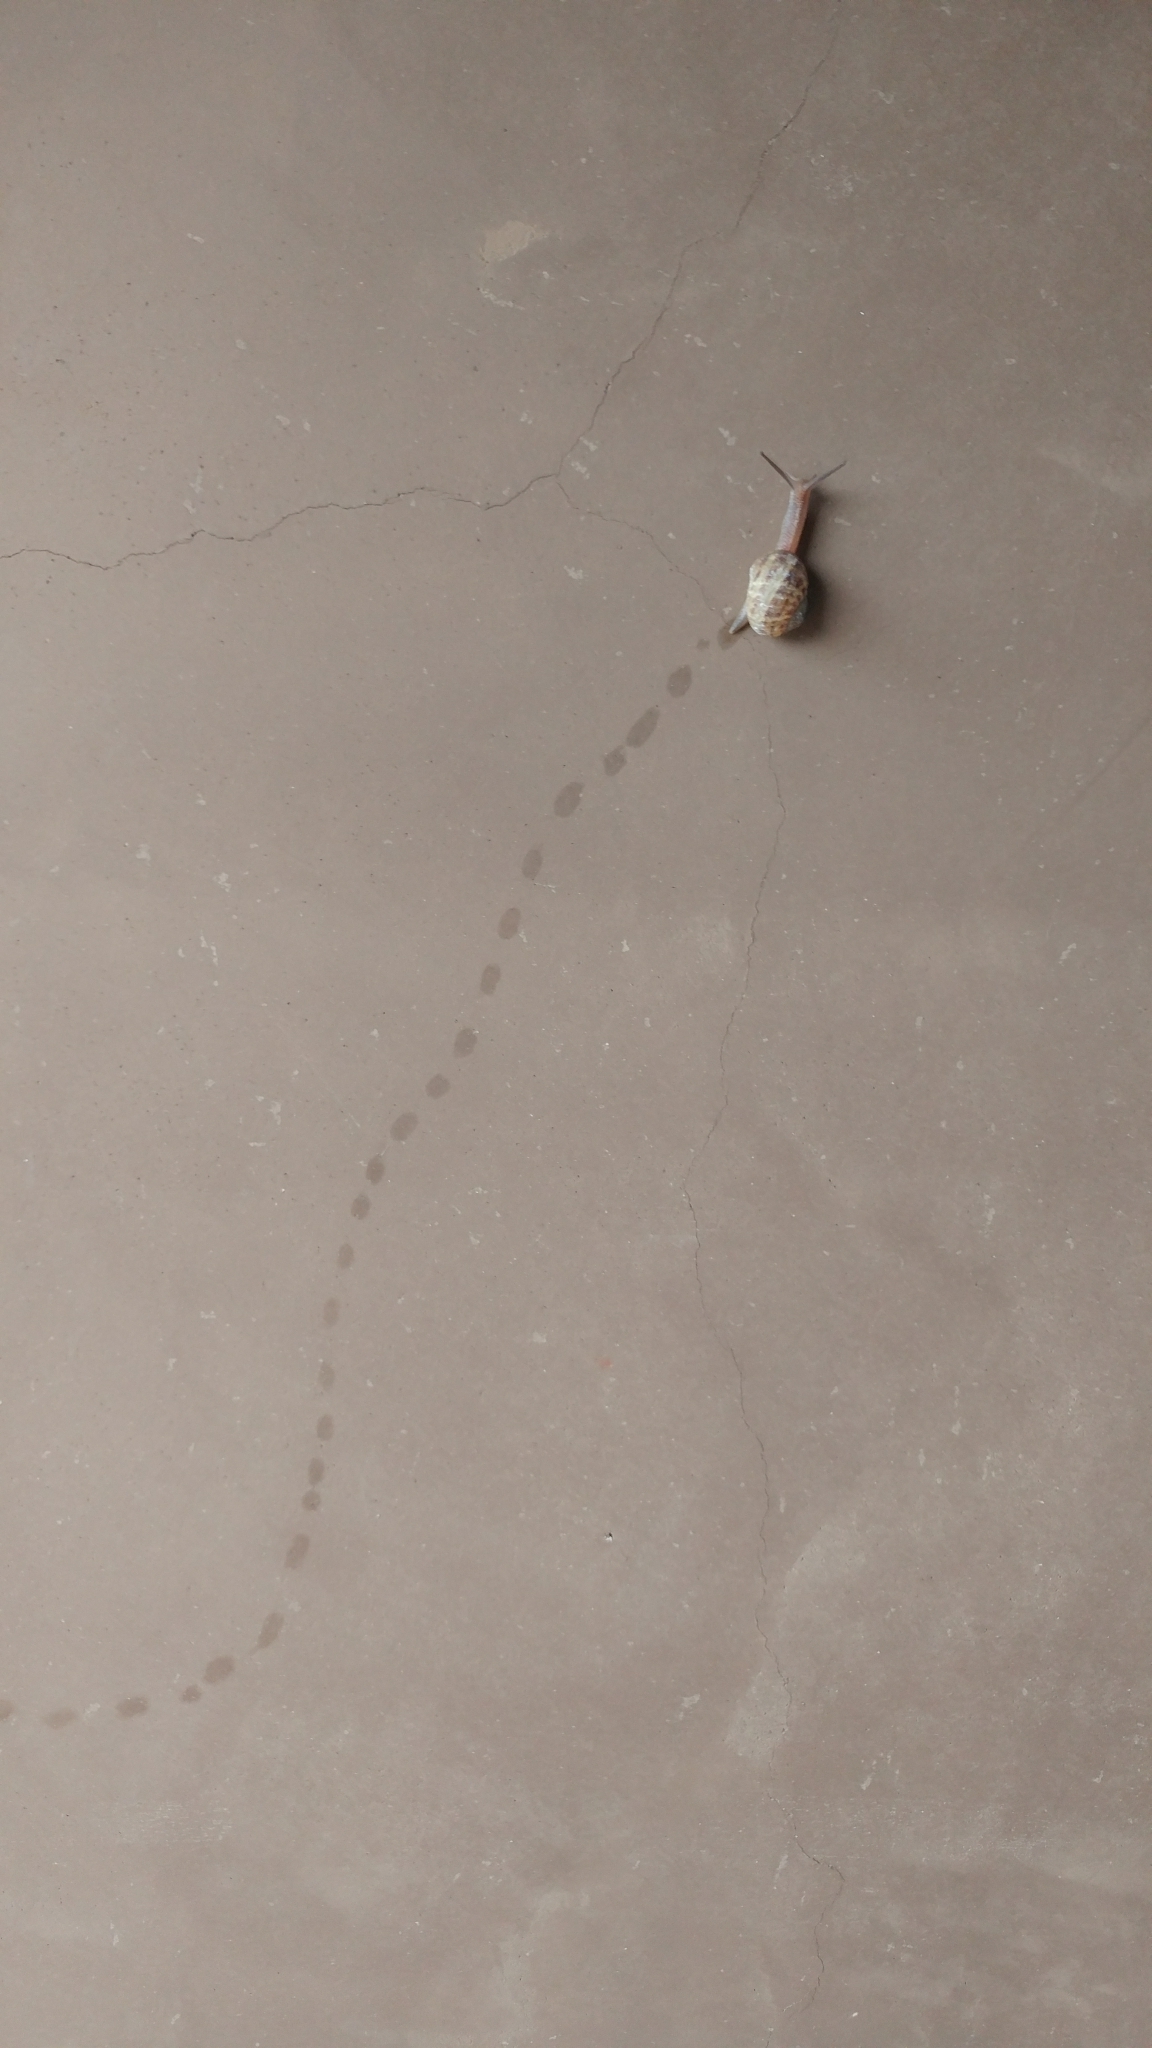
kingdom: Animalia
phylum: Mollusca
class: Gastropoda
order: Stylommatophora
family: Helicidae
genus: Cornu
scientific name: Cornu aspersum
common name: Brown garden snail
